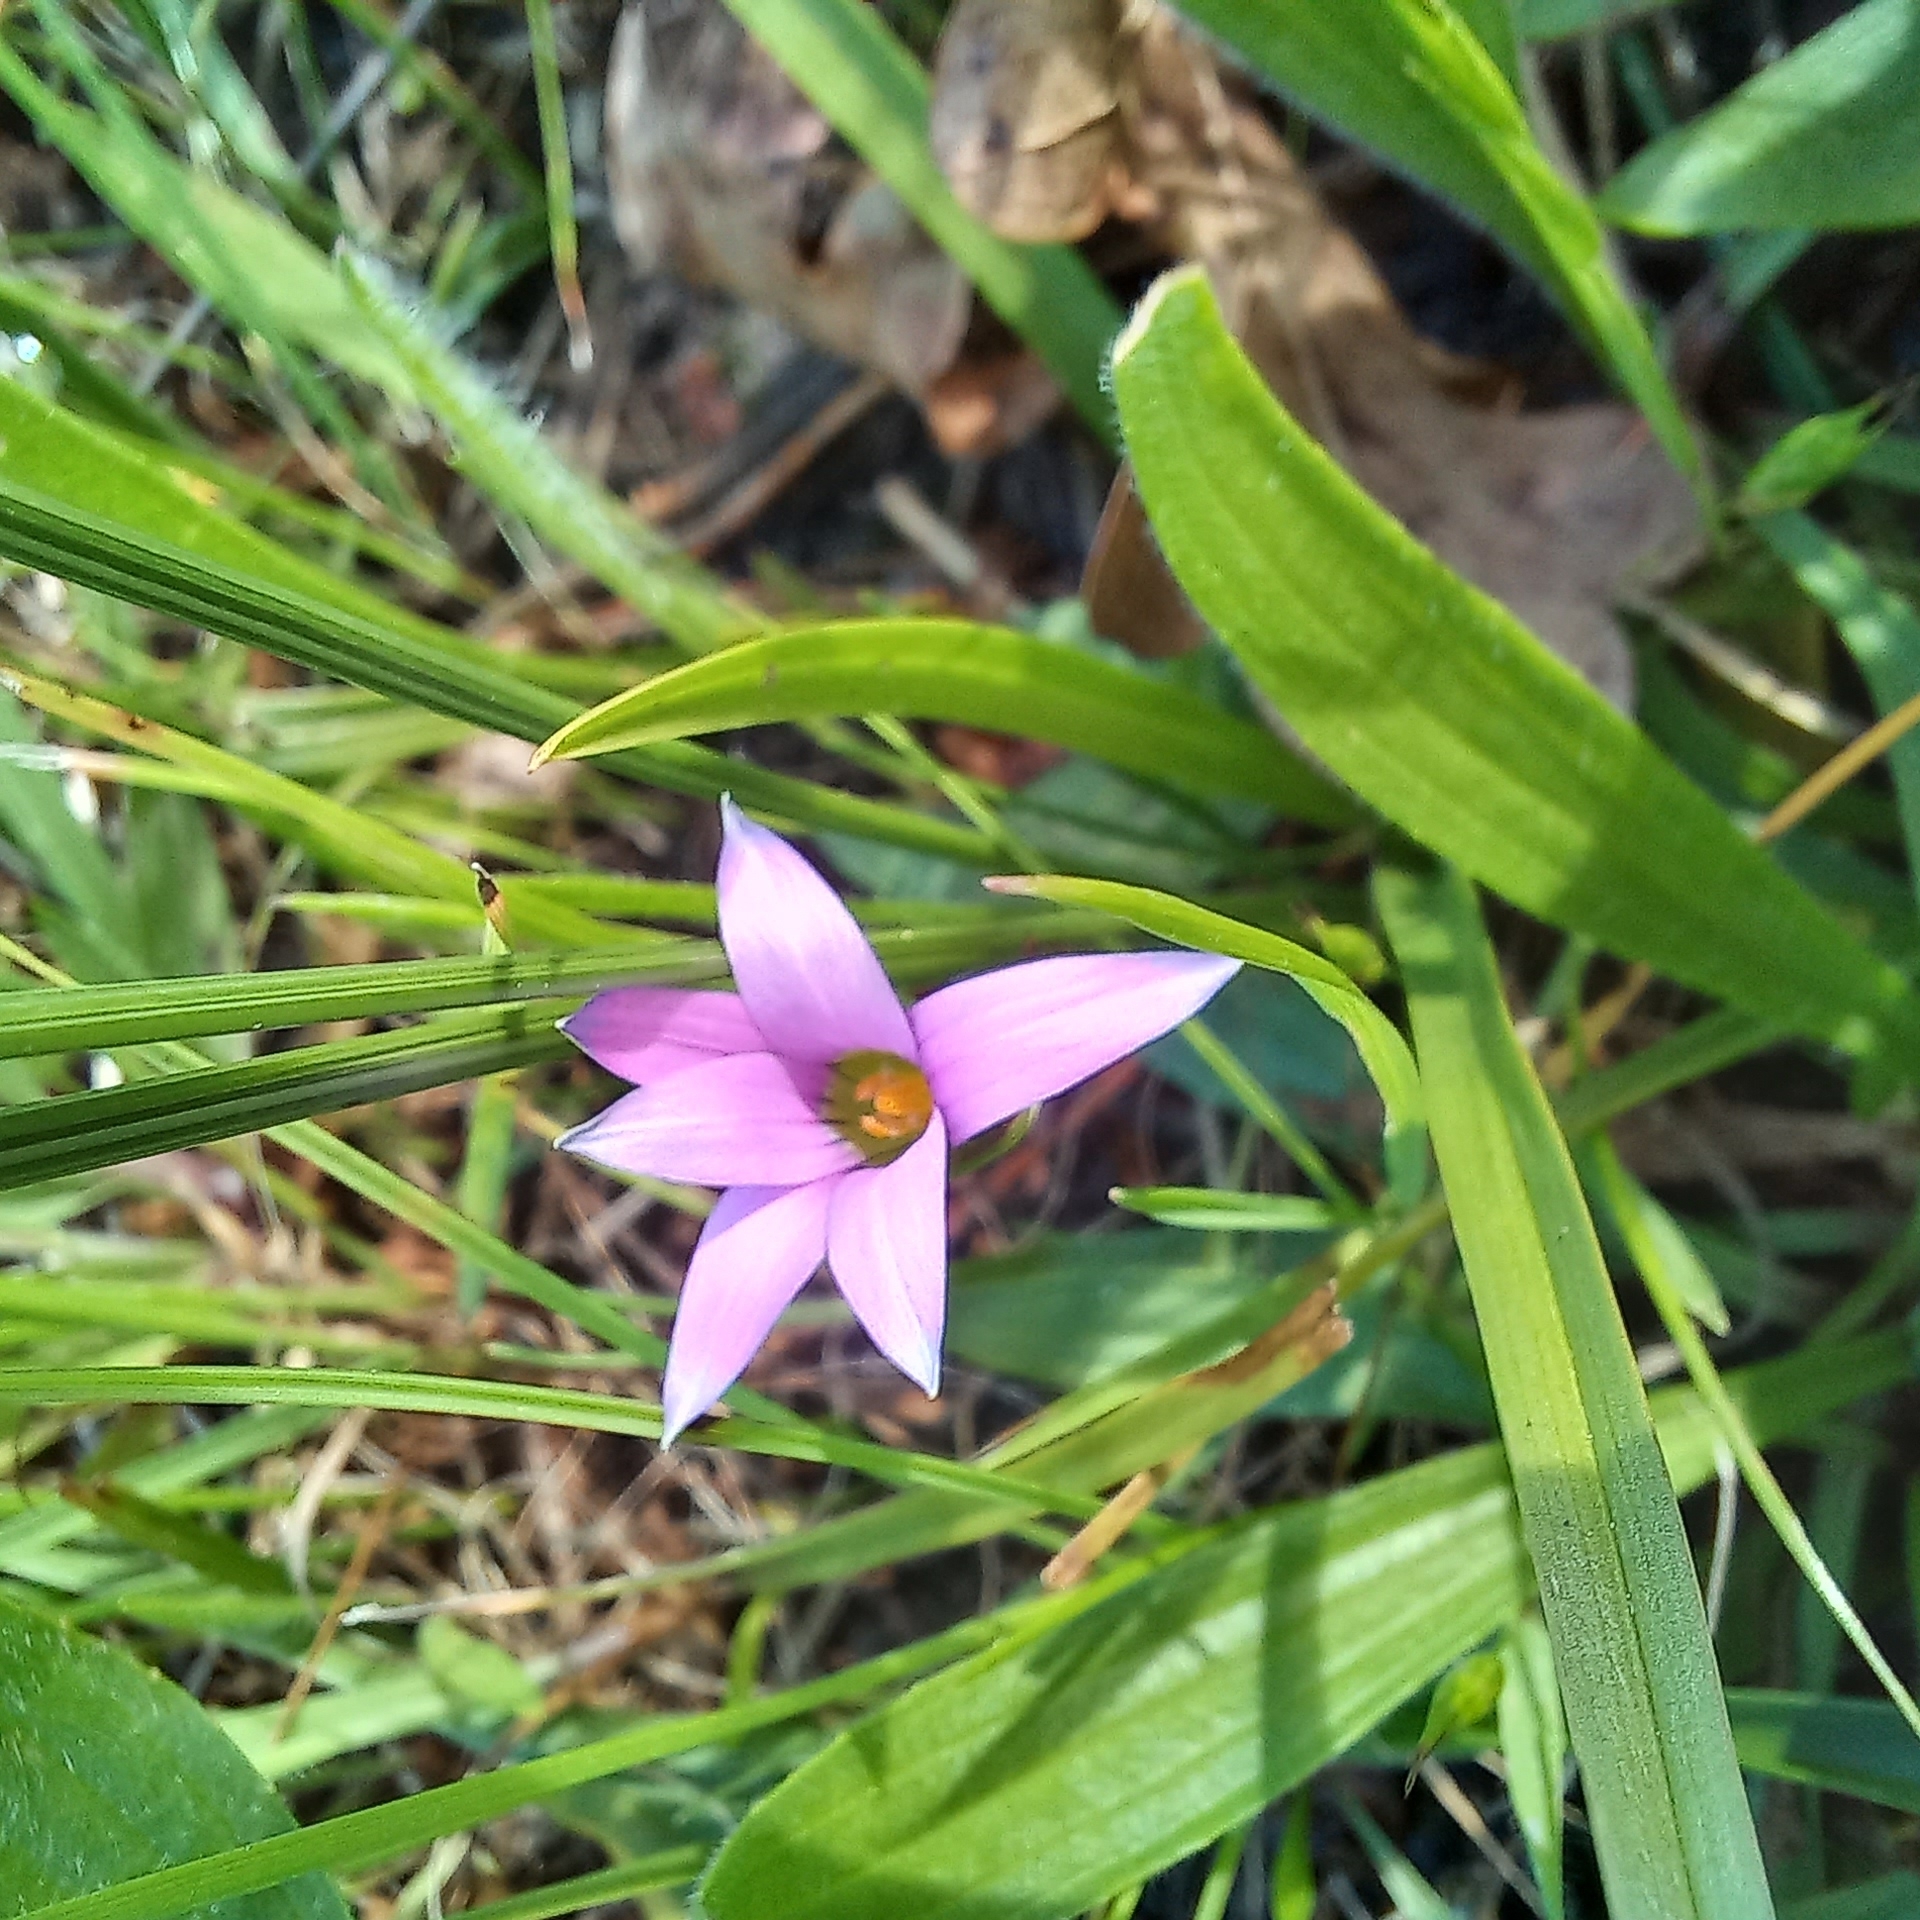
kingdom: Plantae
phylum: Tracheophyta
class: Liliopsida
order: Asparagales
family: Iridaceae
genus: Romulea
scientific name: Romulea rosea
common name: Oniongrass
